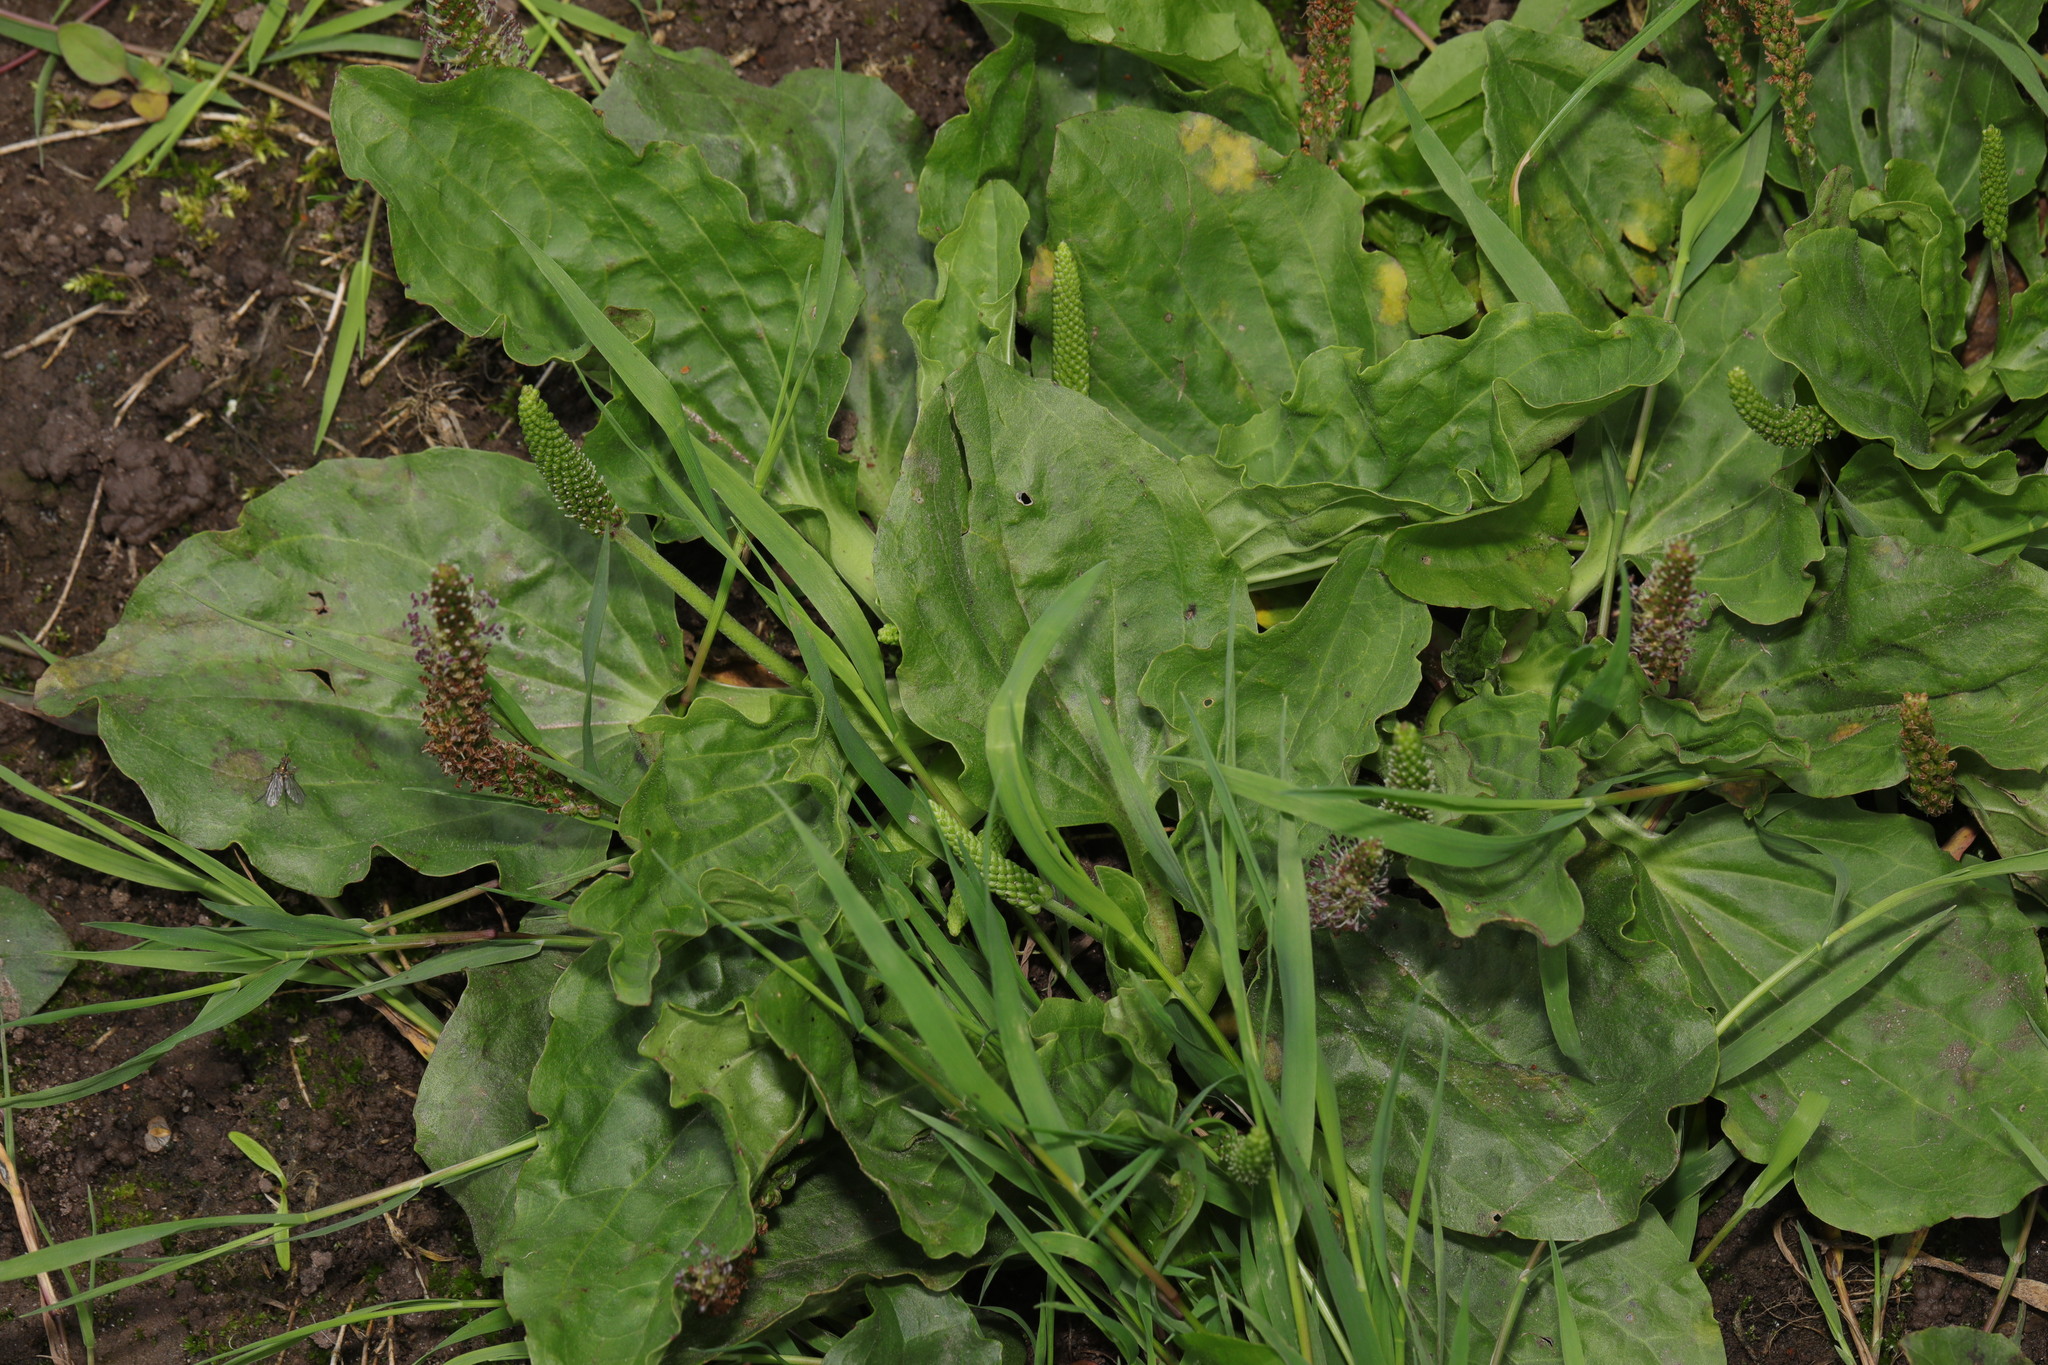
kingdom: Plantae
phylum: Tracheophyta
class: Magnoliopsida
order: Lamiales
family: Plantaginaceae
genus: Plantago
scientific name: Plantago major
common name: Common plantain
